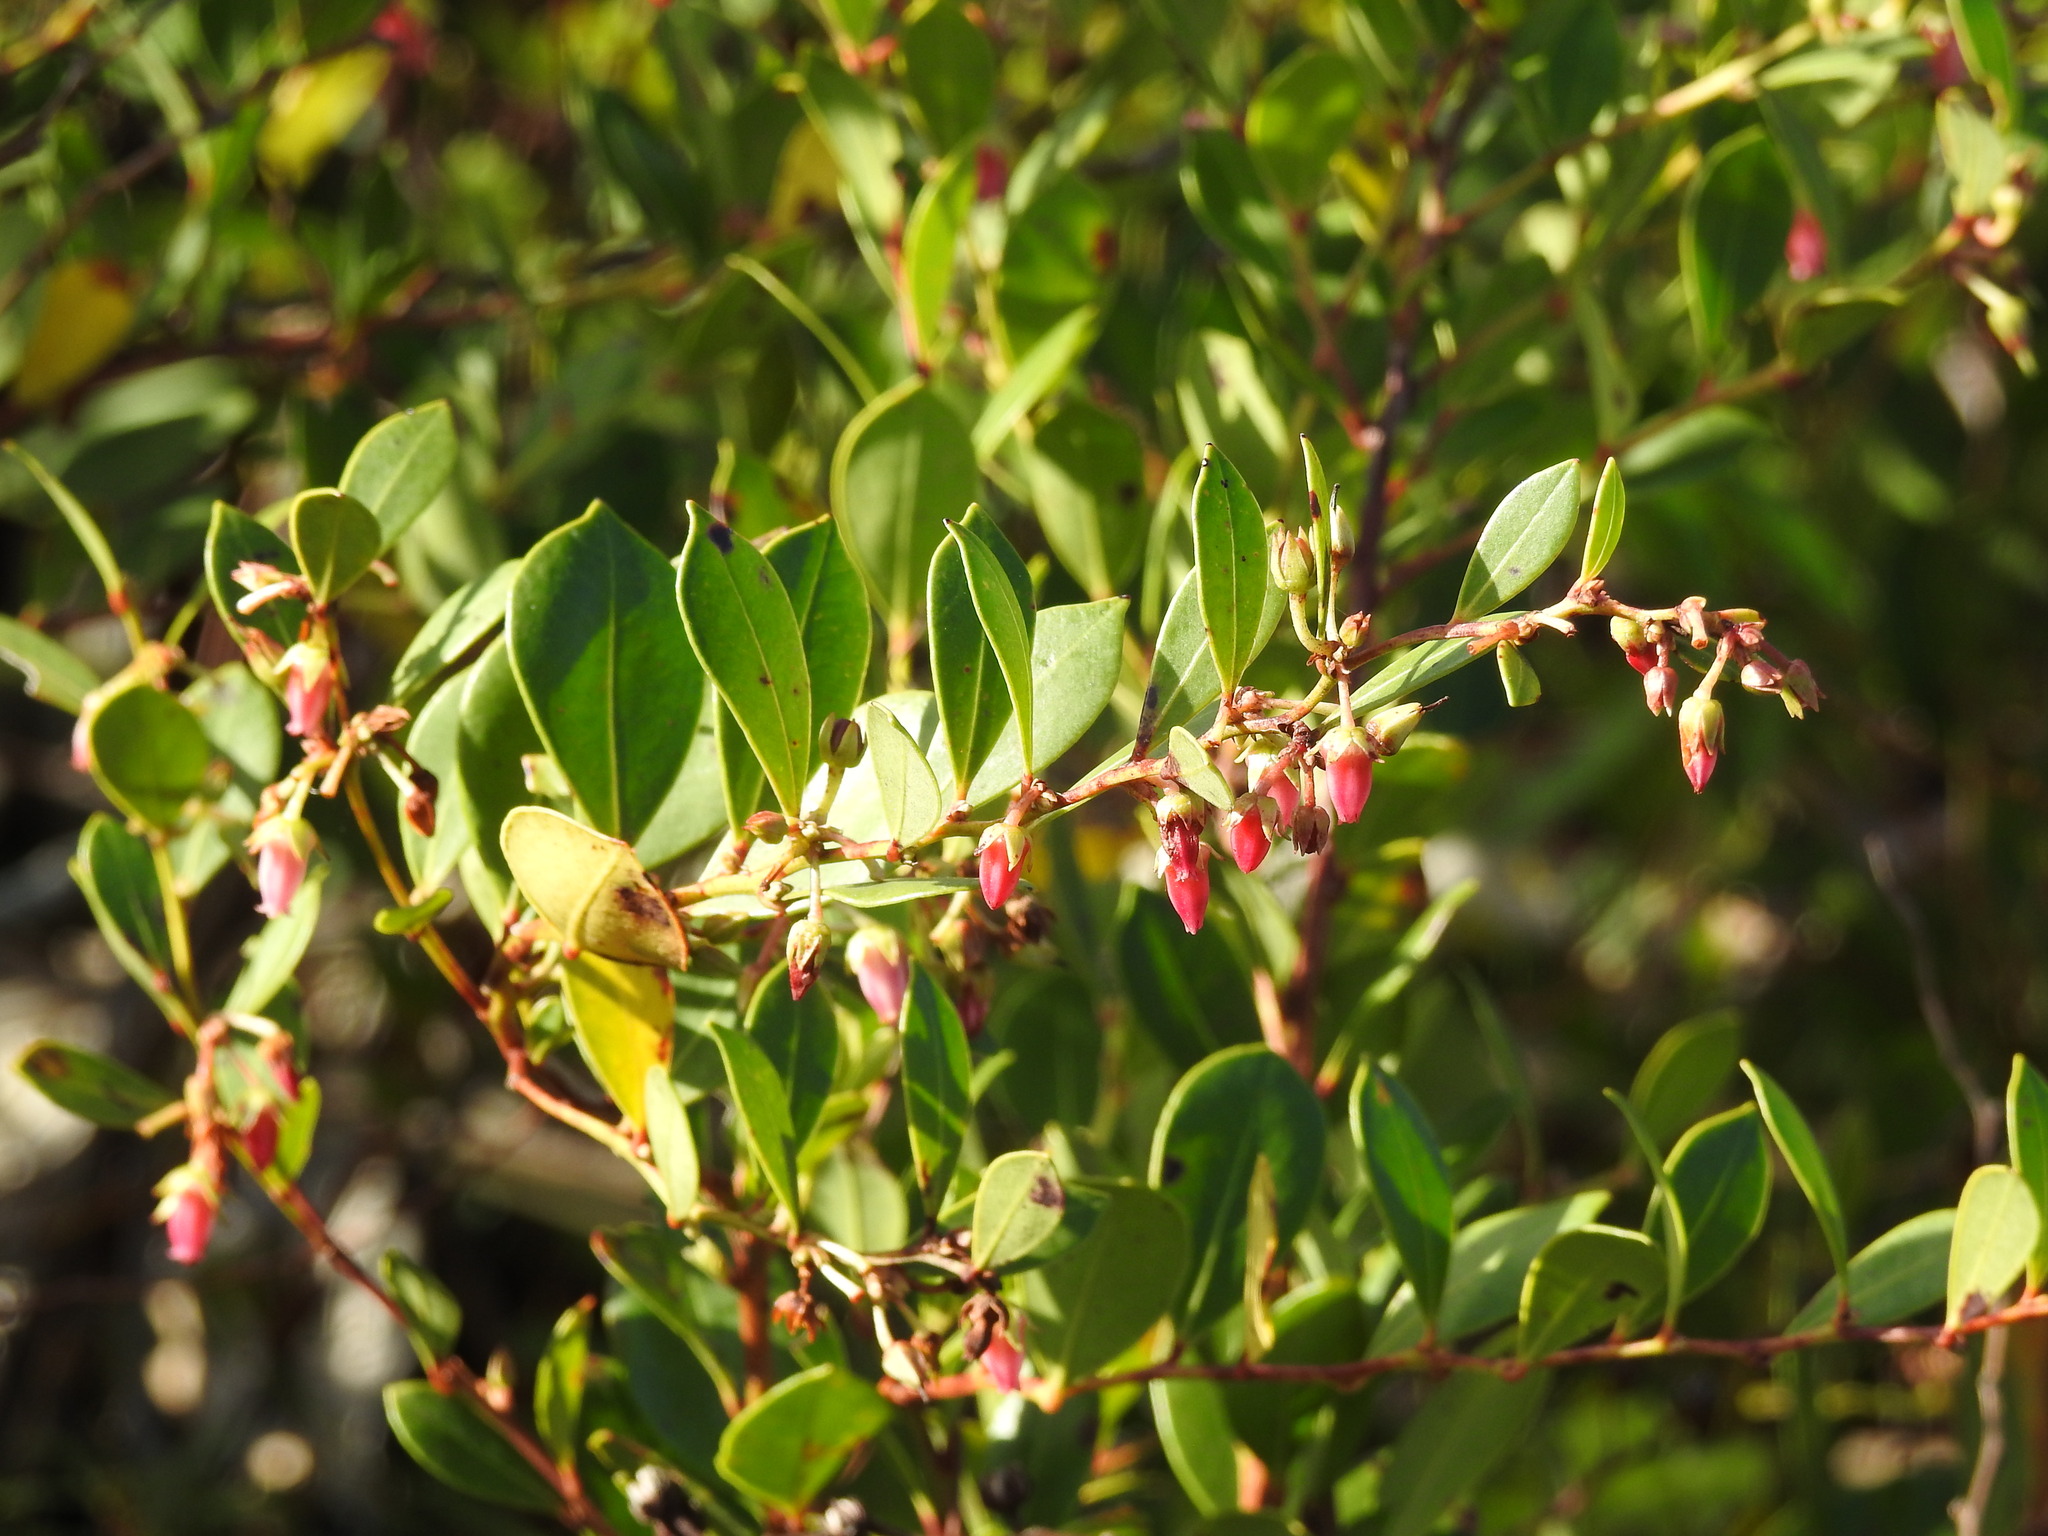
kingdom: Plantae
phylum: Tracheophyta
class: Magnoliopsida
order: Ericales
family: Ericaceae
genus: Lyonia
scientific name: Lyonia lucida
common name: Fetterbush
